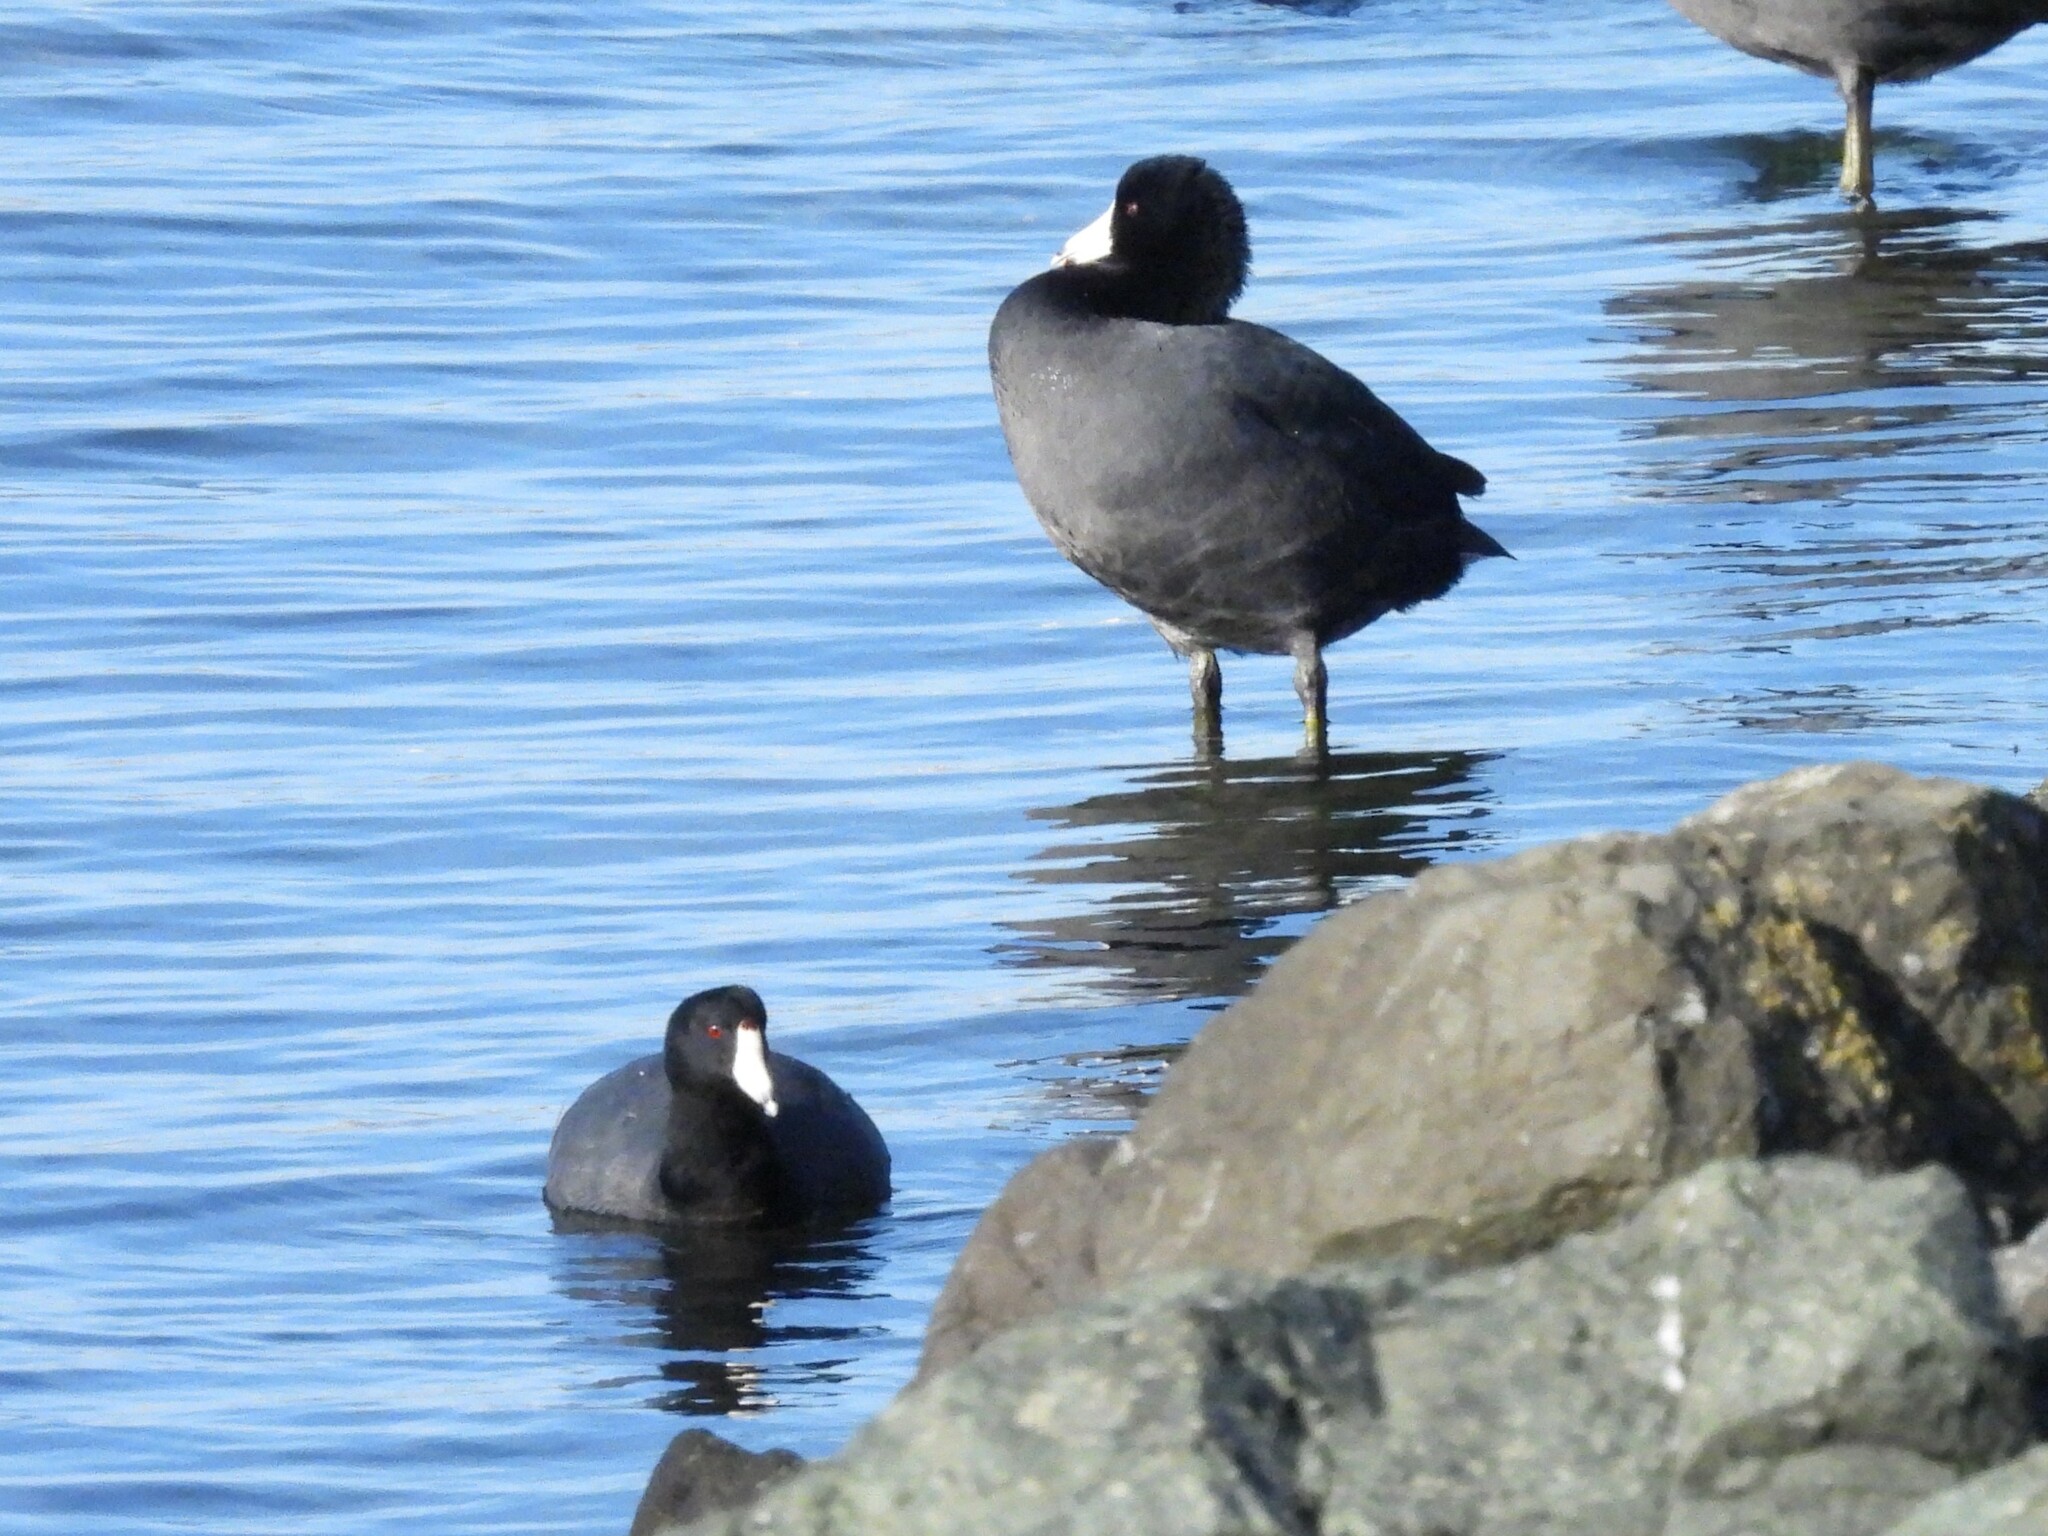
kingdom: Animalia
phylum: Chordata
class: Aves
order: Gruiformes
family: Rallidae
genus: Fulica
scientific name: Fulica americana
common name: American coot
